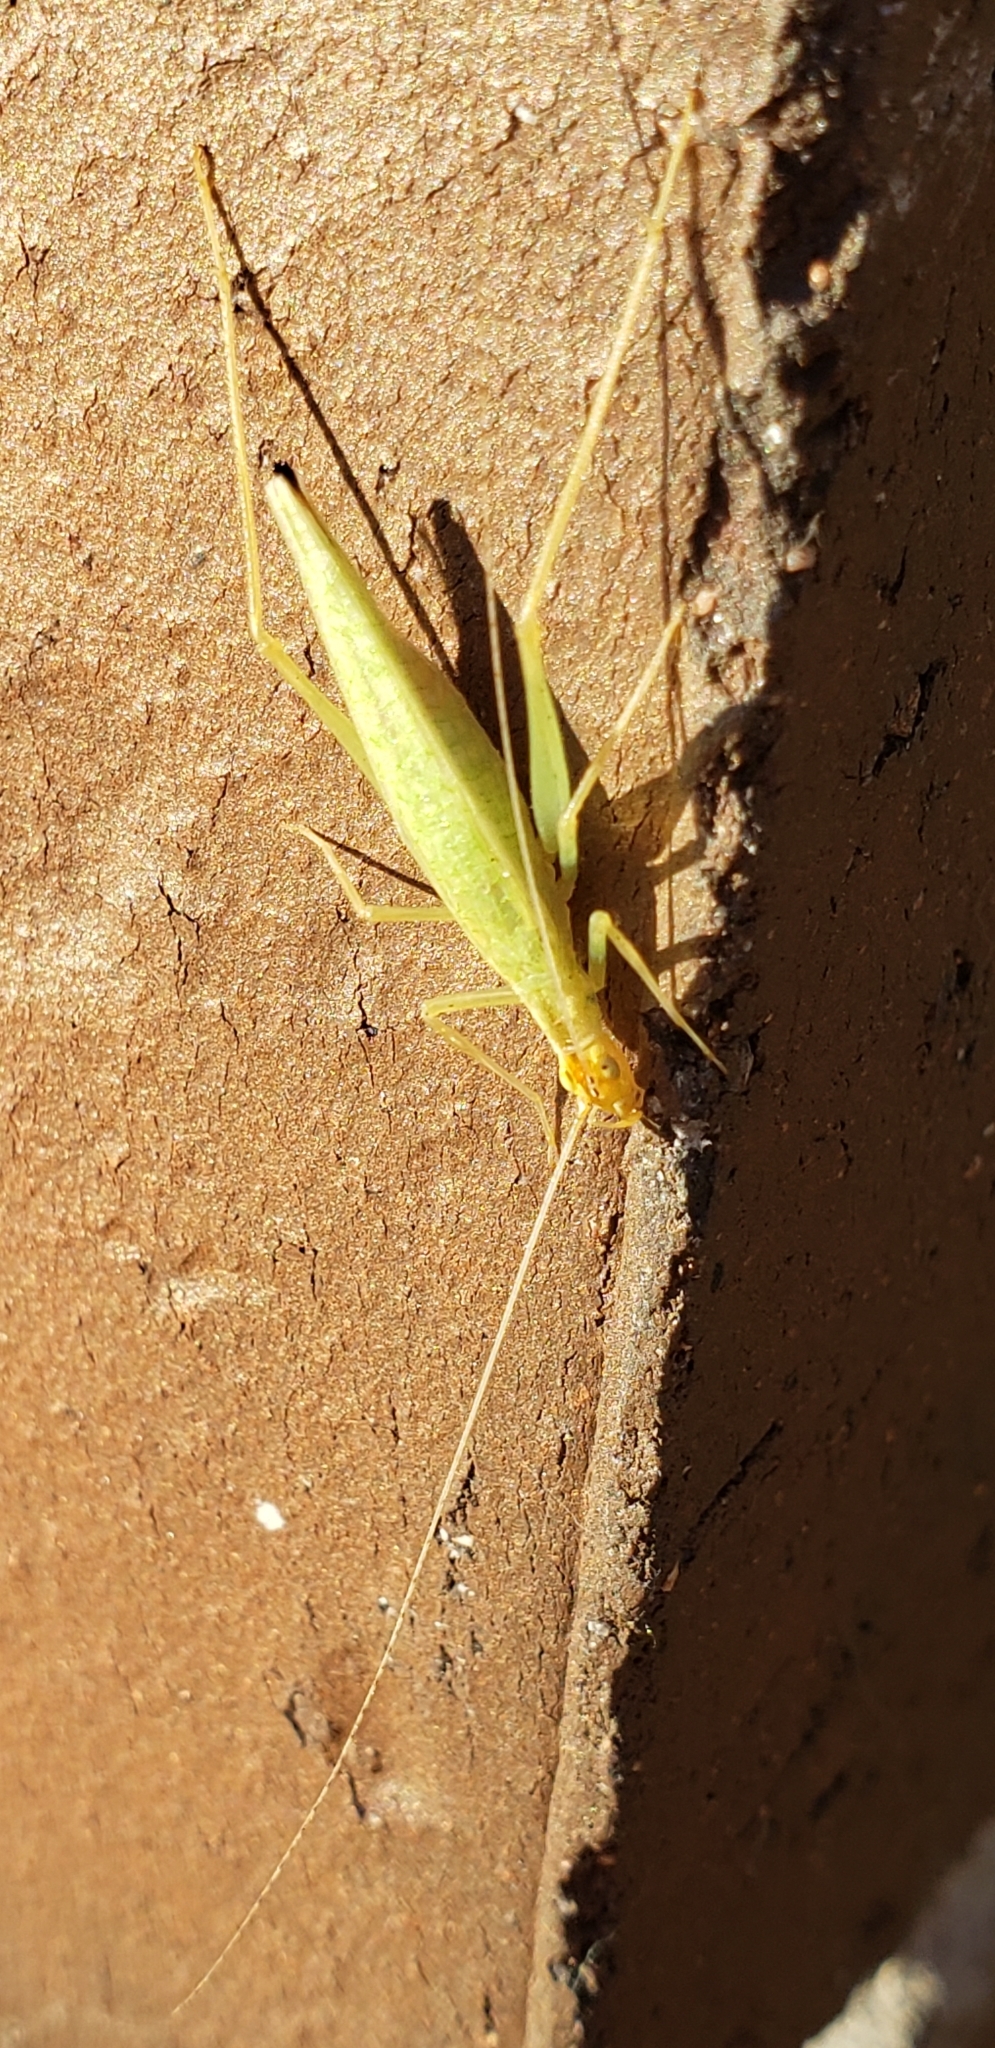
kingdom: Animalia
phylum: Arthropoda
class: Insecta
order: Orthoptera
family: Gryllidae
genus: Oecanthus
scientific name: Oecanthus niveus
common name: Narrow-winged tree cricket
